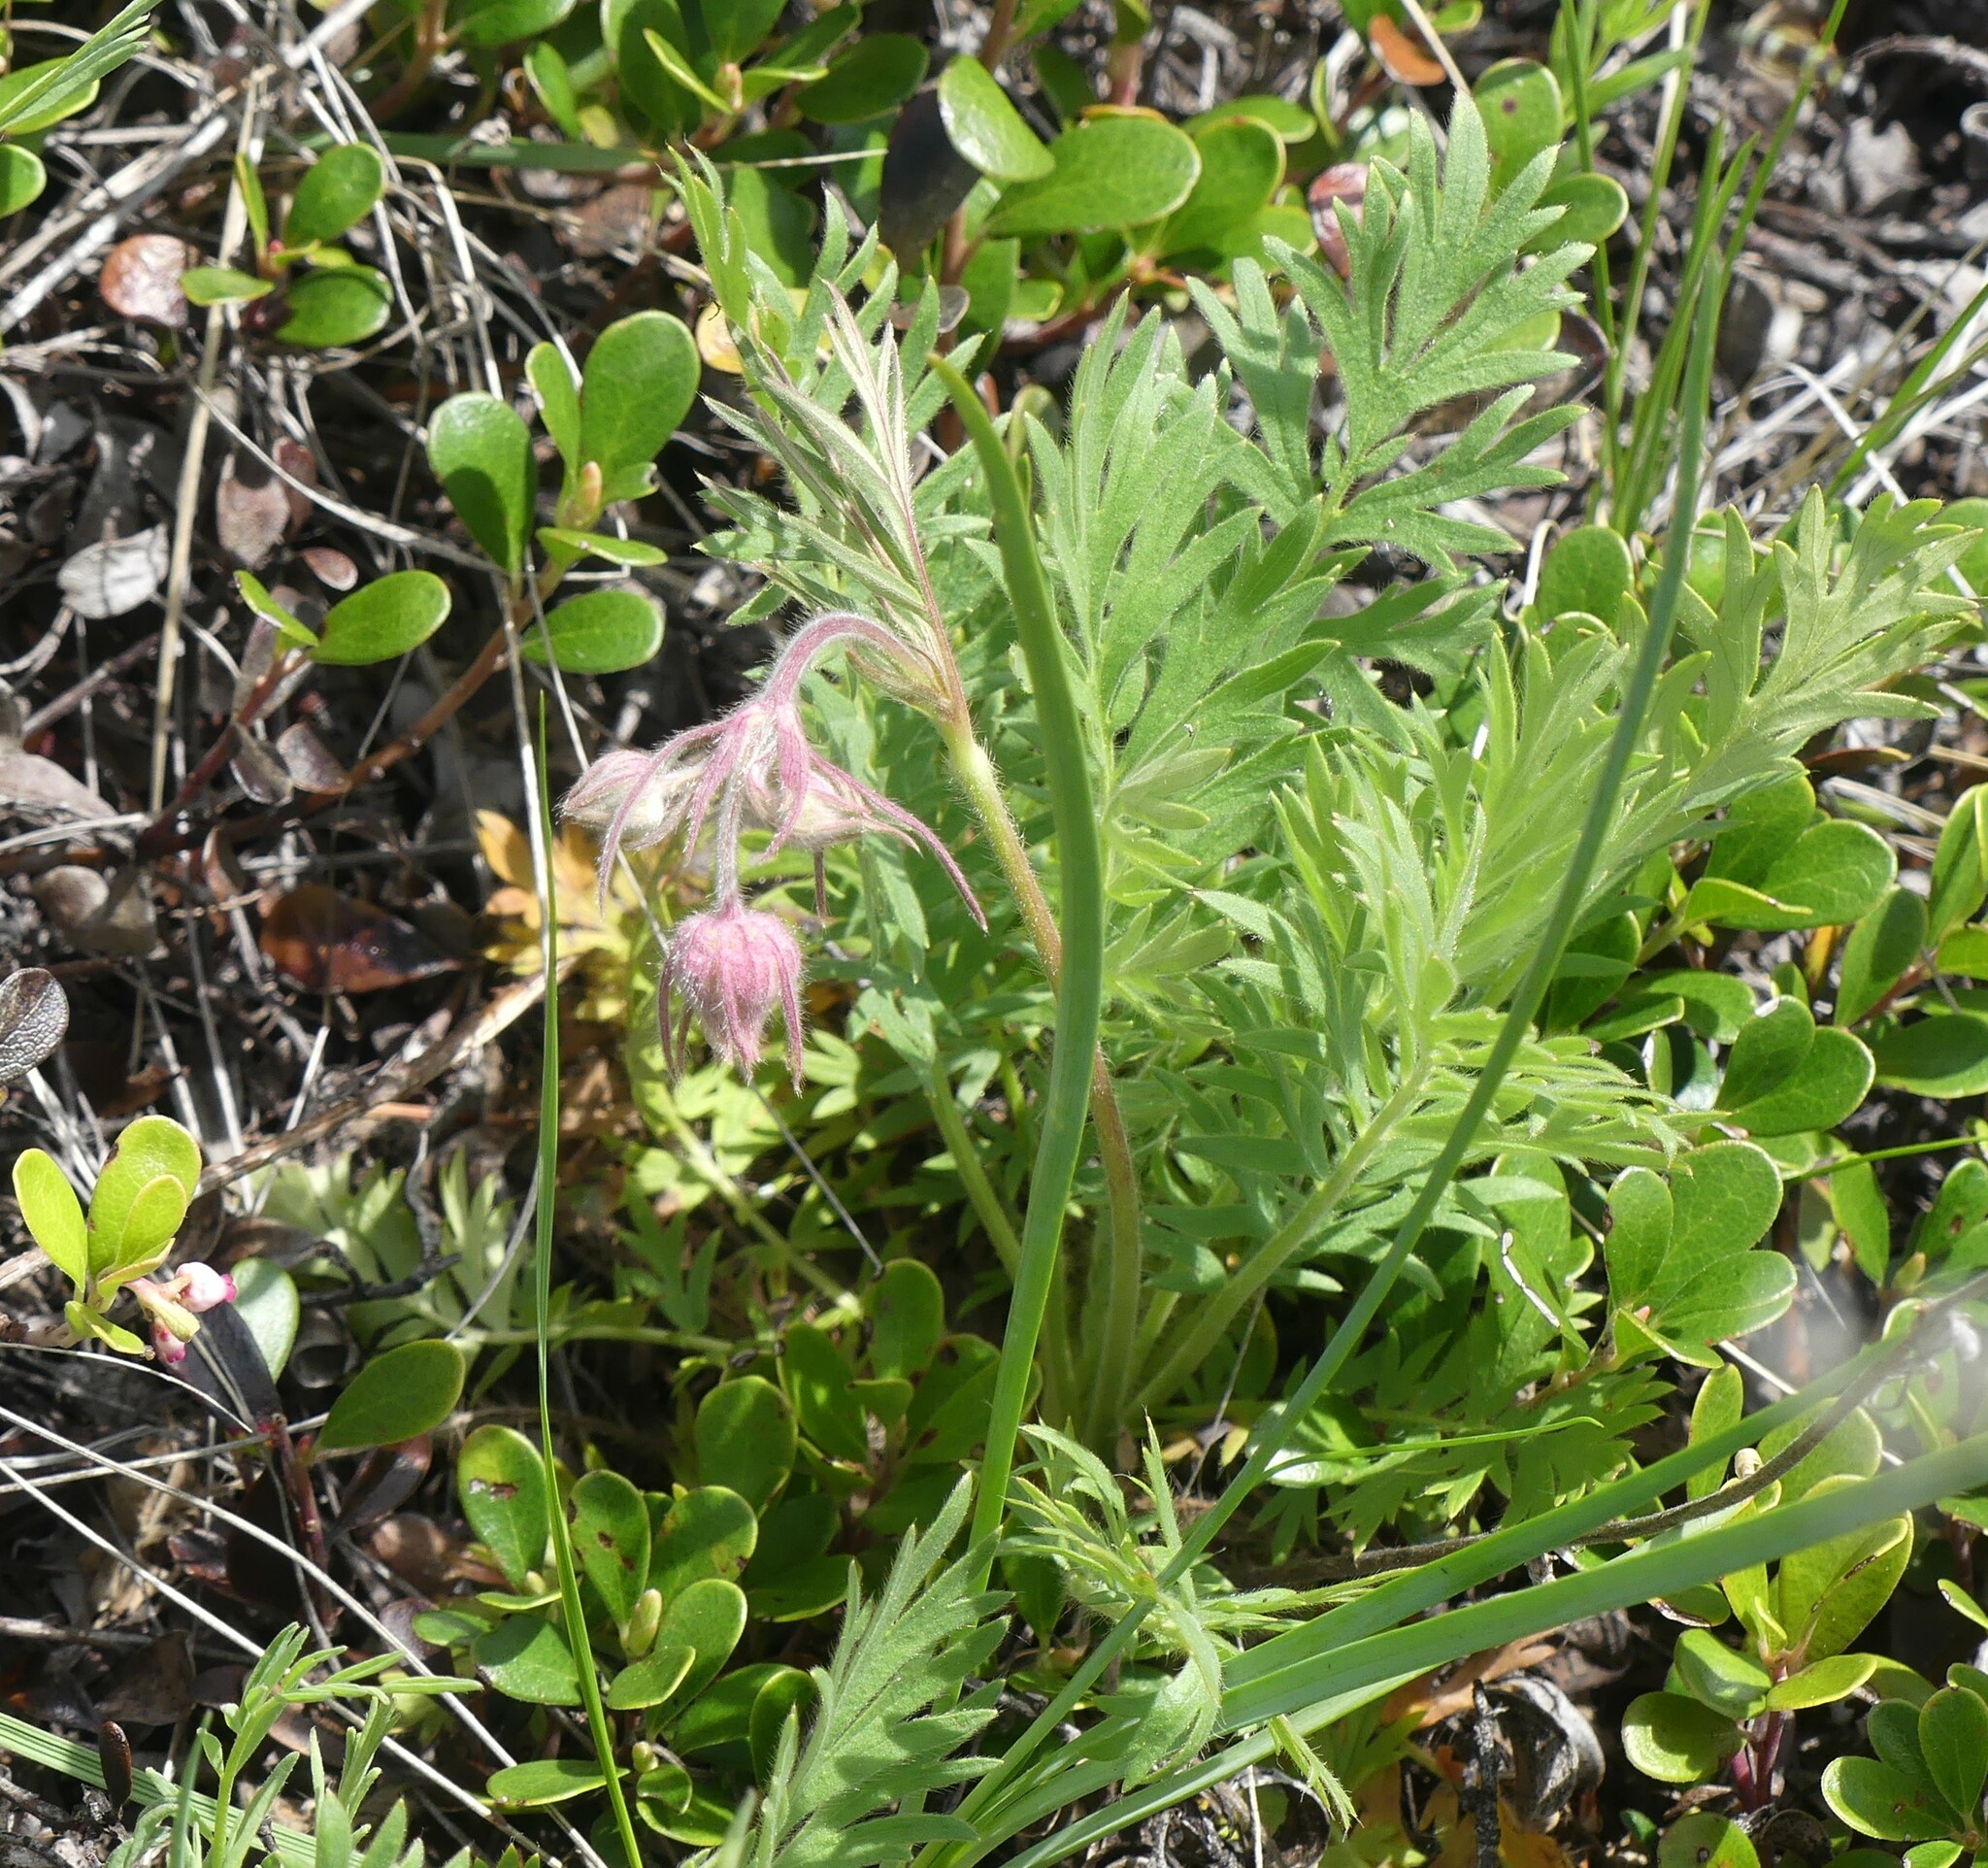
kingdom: Plantae
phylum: Tracheophyta
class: Magnoliopsida
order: Rosales
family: Rosaceae
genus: Geum
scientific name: Geum triflorum
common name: Old man's whiskers
